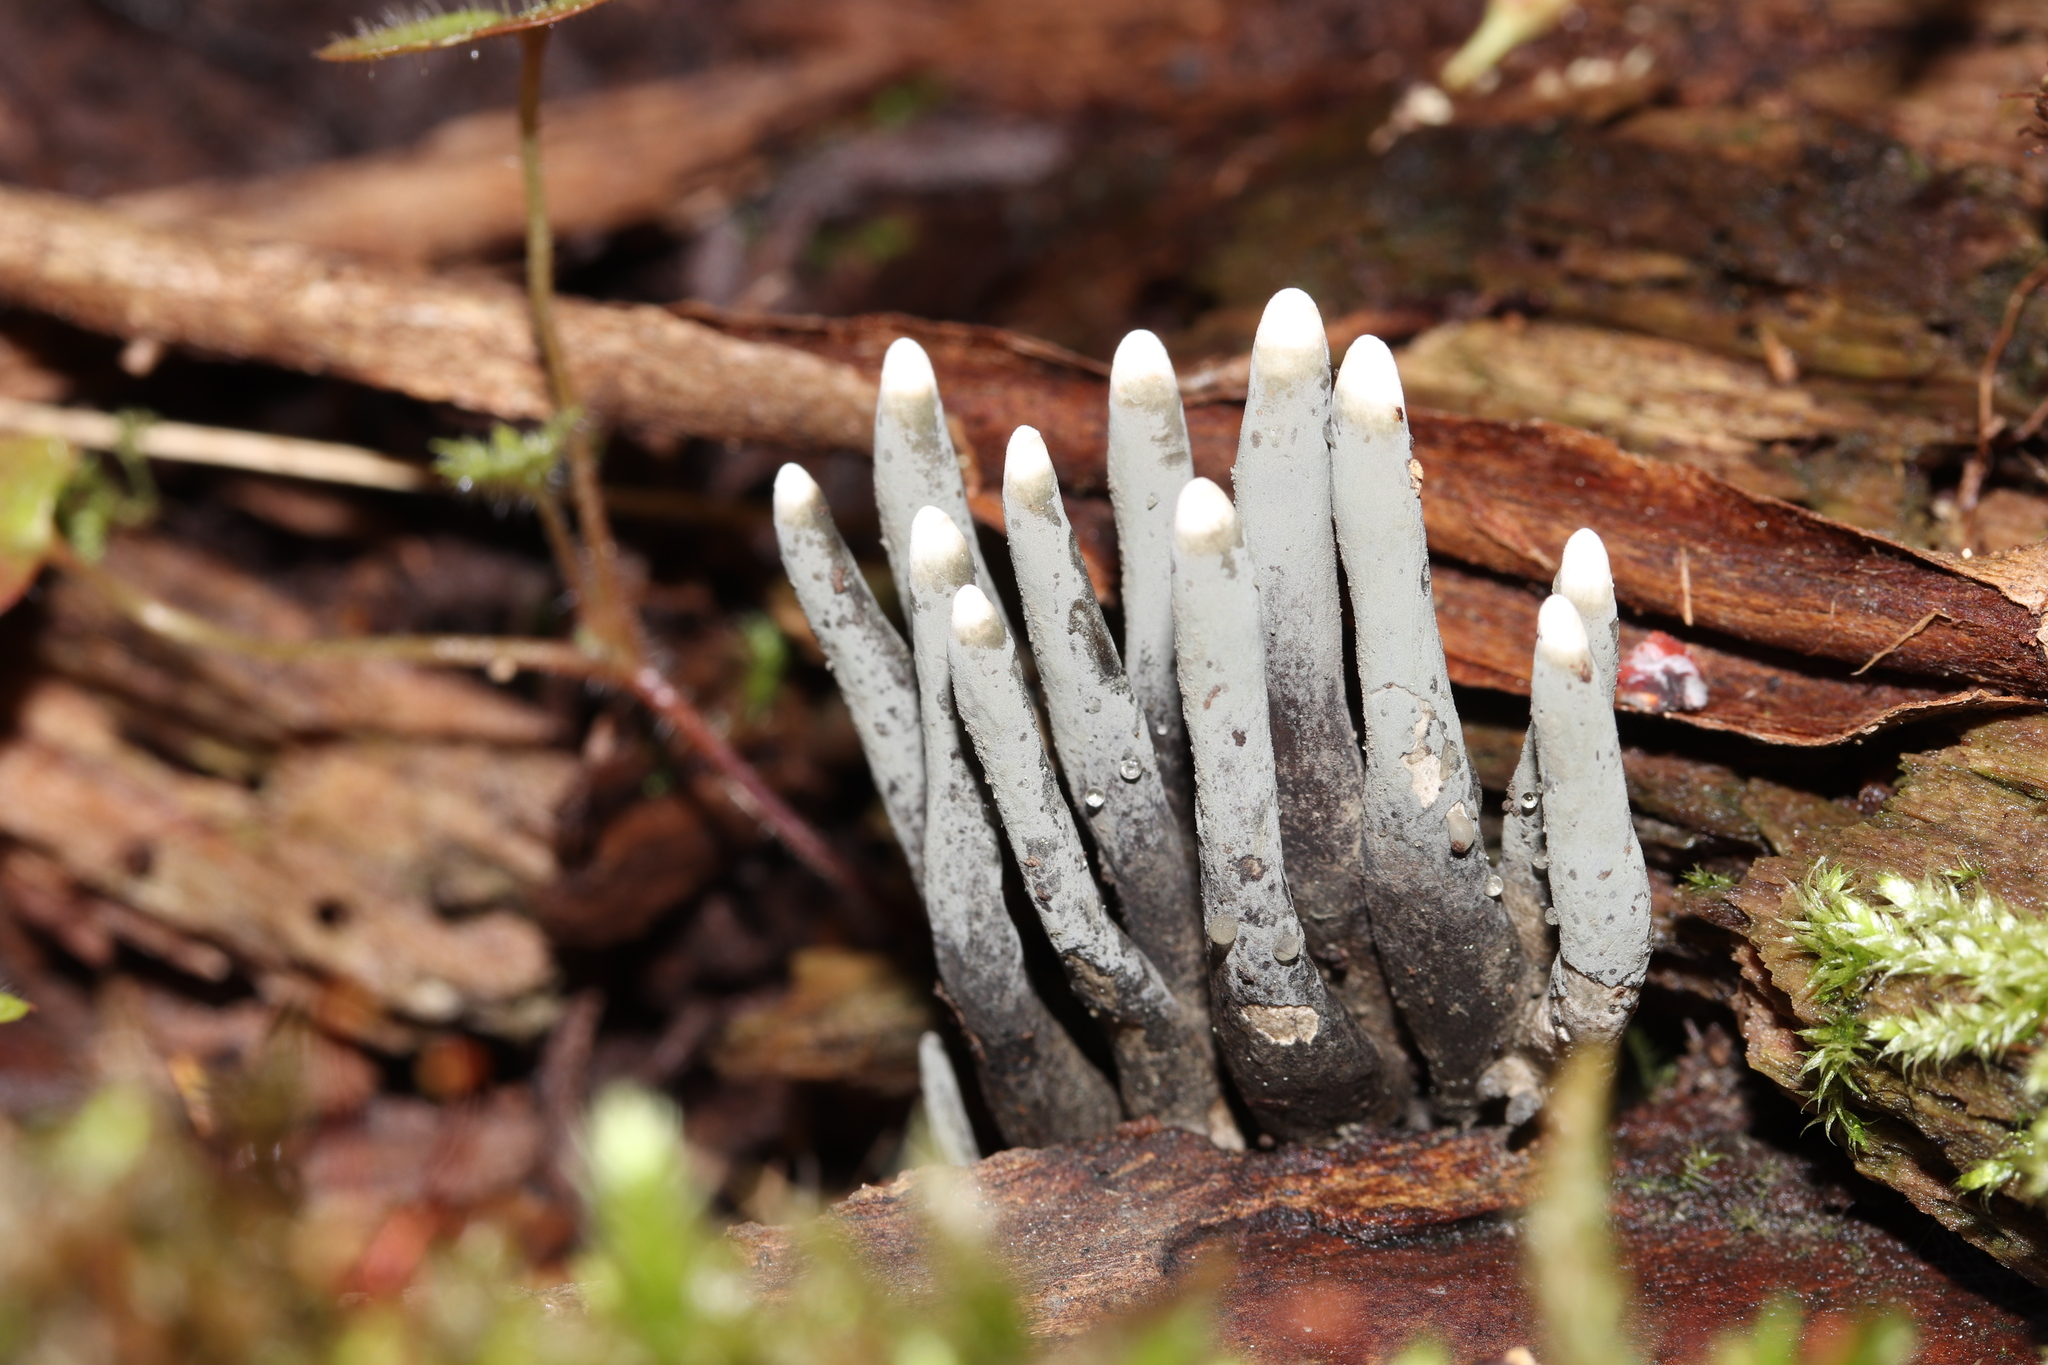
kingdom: Fungi
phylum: Ascomycota
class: Sordariomycetes
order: Xylariales
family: Xylariaceae
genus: Xylaria
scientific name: Xylaria polymorpha
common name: Dead man's fingers
